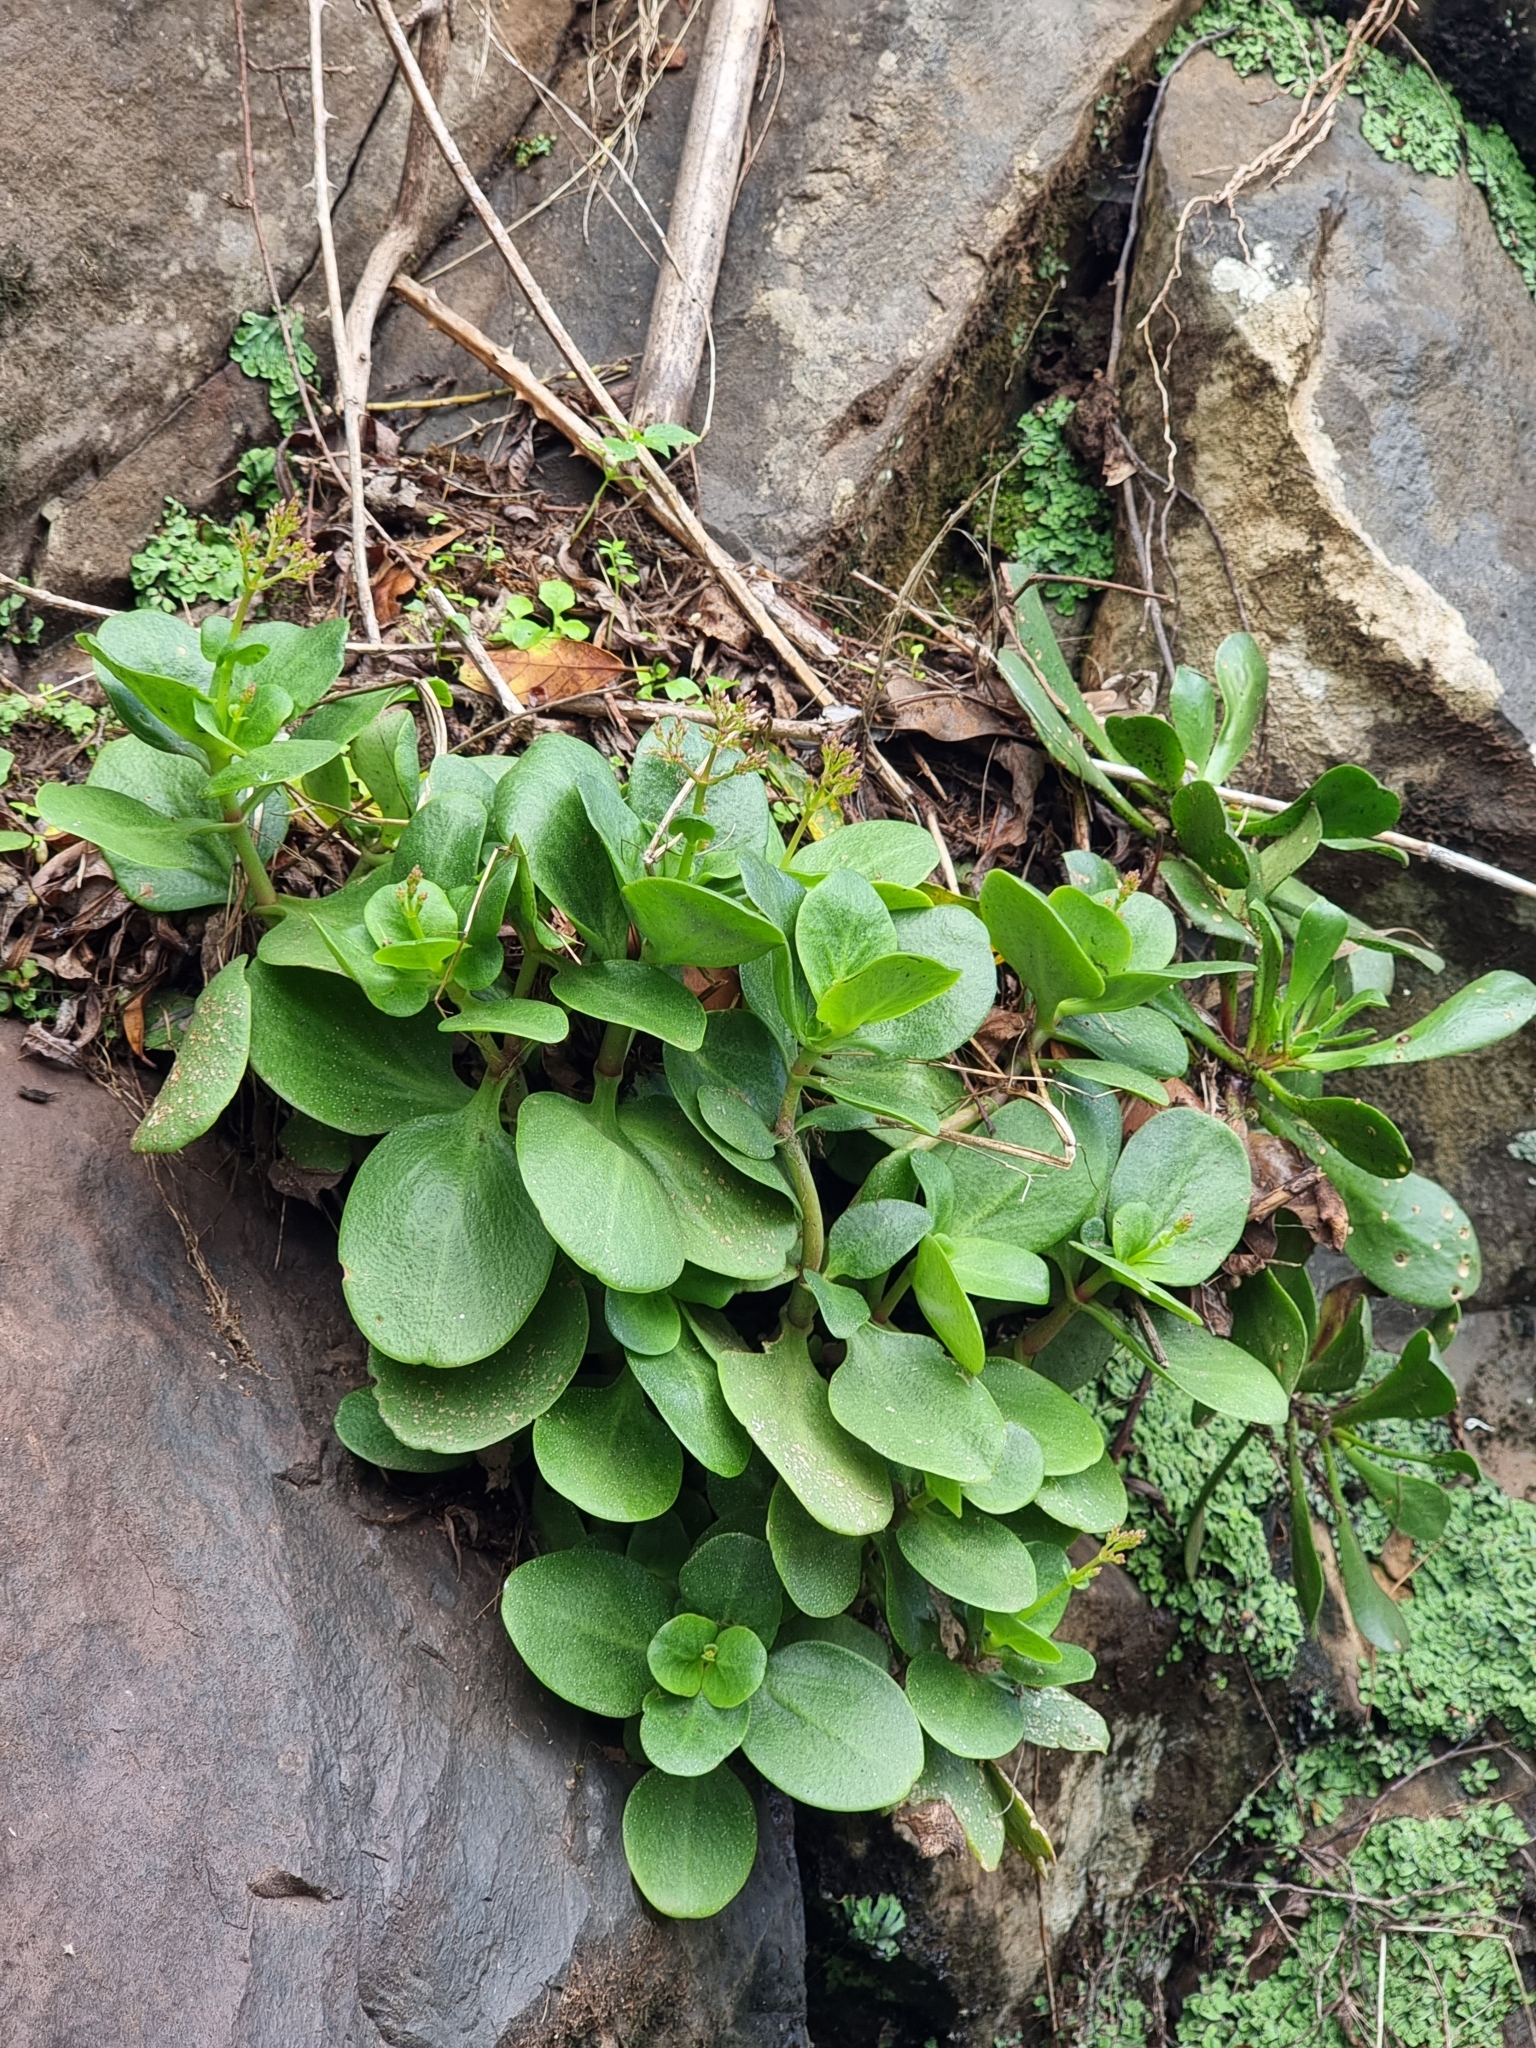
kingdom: Plantae
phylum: Tracheophyta
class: Magnoliopsida
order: Saxifragales
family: Crassulaceae
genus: Crassula
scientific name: Crassula multicava
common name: Cape province pygmyweed
